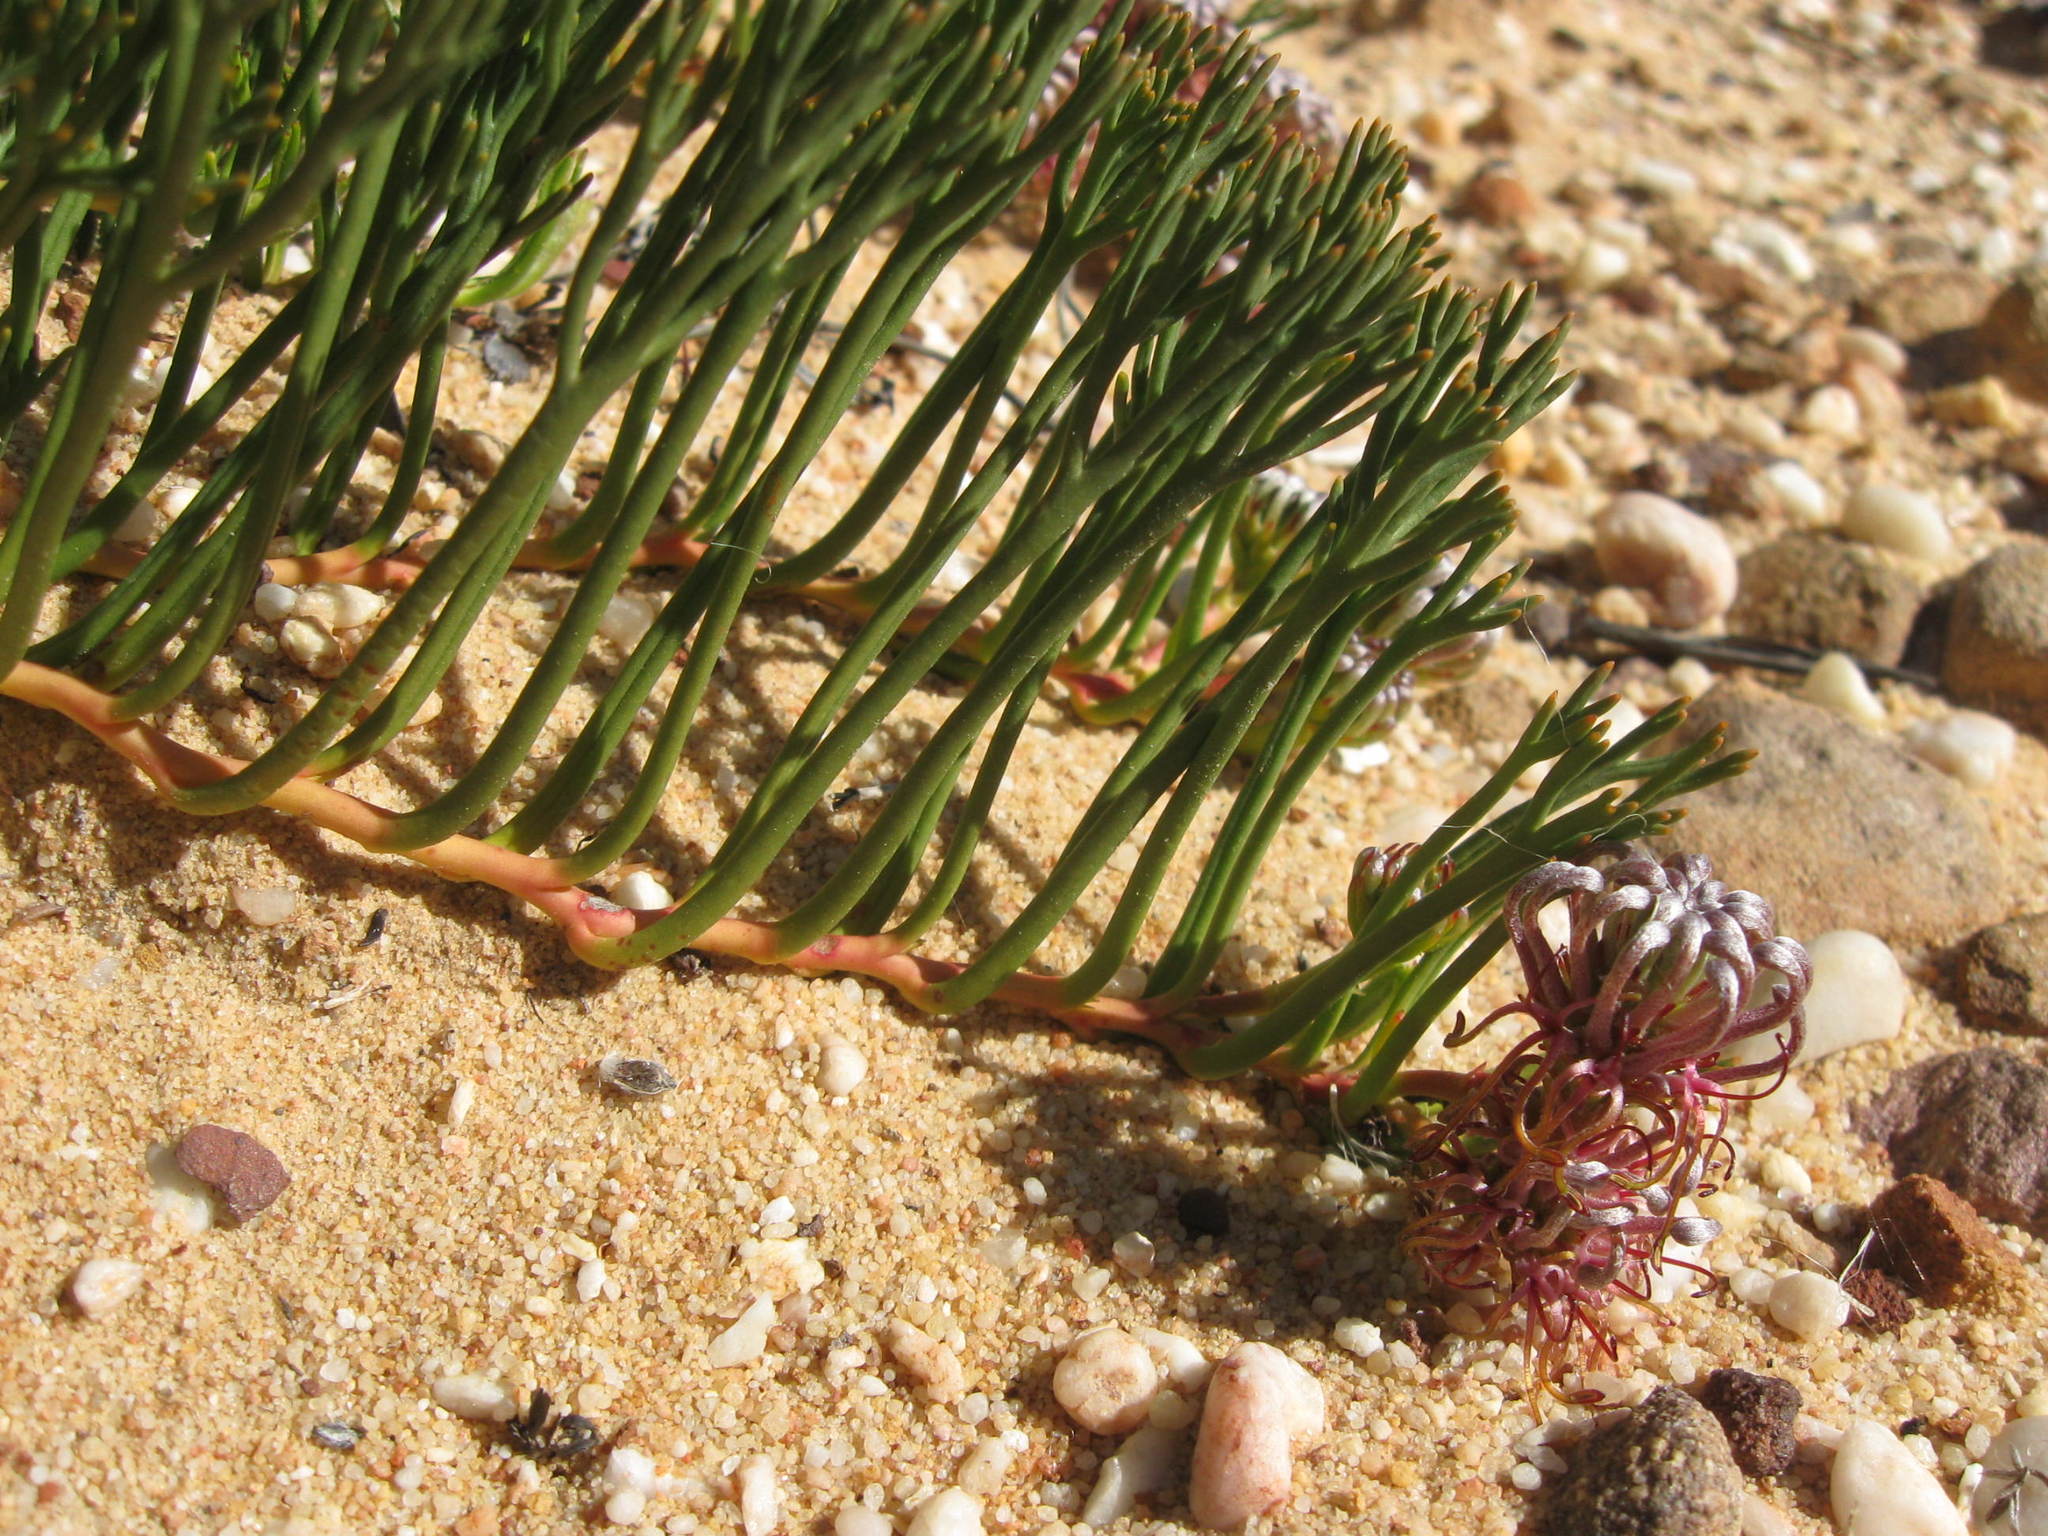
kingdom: Plantae
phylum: Tracheophyta
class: Magnoliopsida
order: Proteales
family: Proteaceae
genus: Serruria
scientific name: Serruria cygnea
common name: Swan spiderhead
